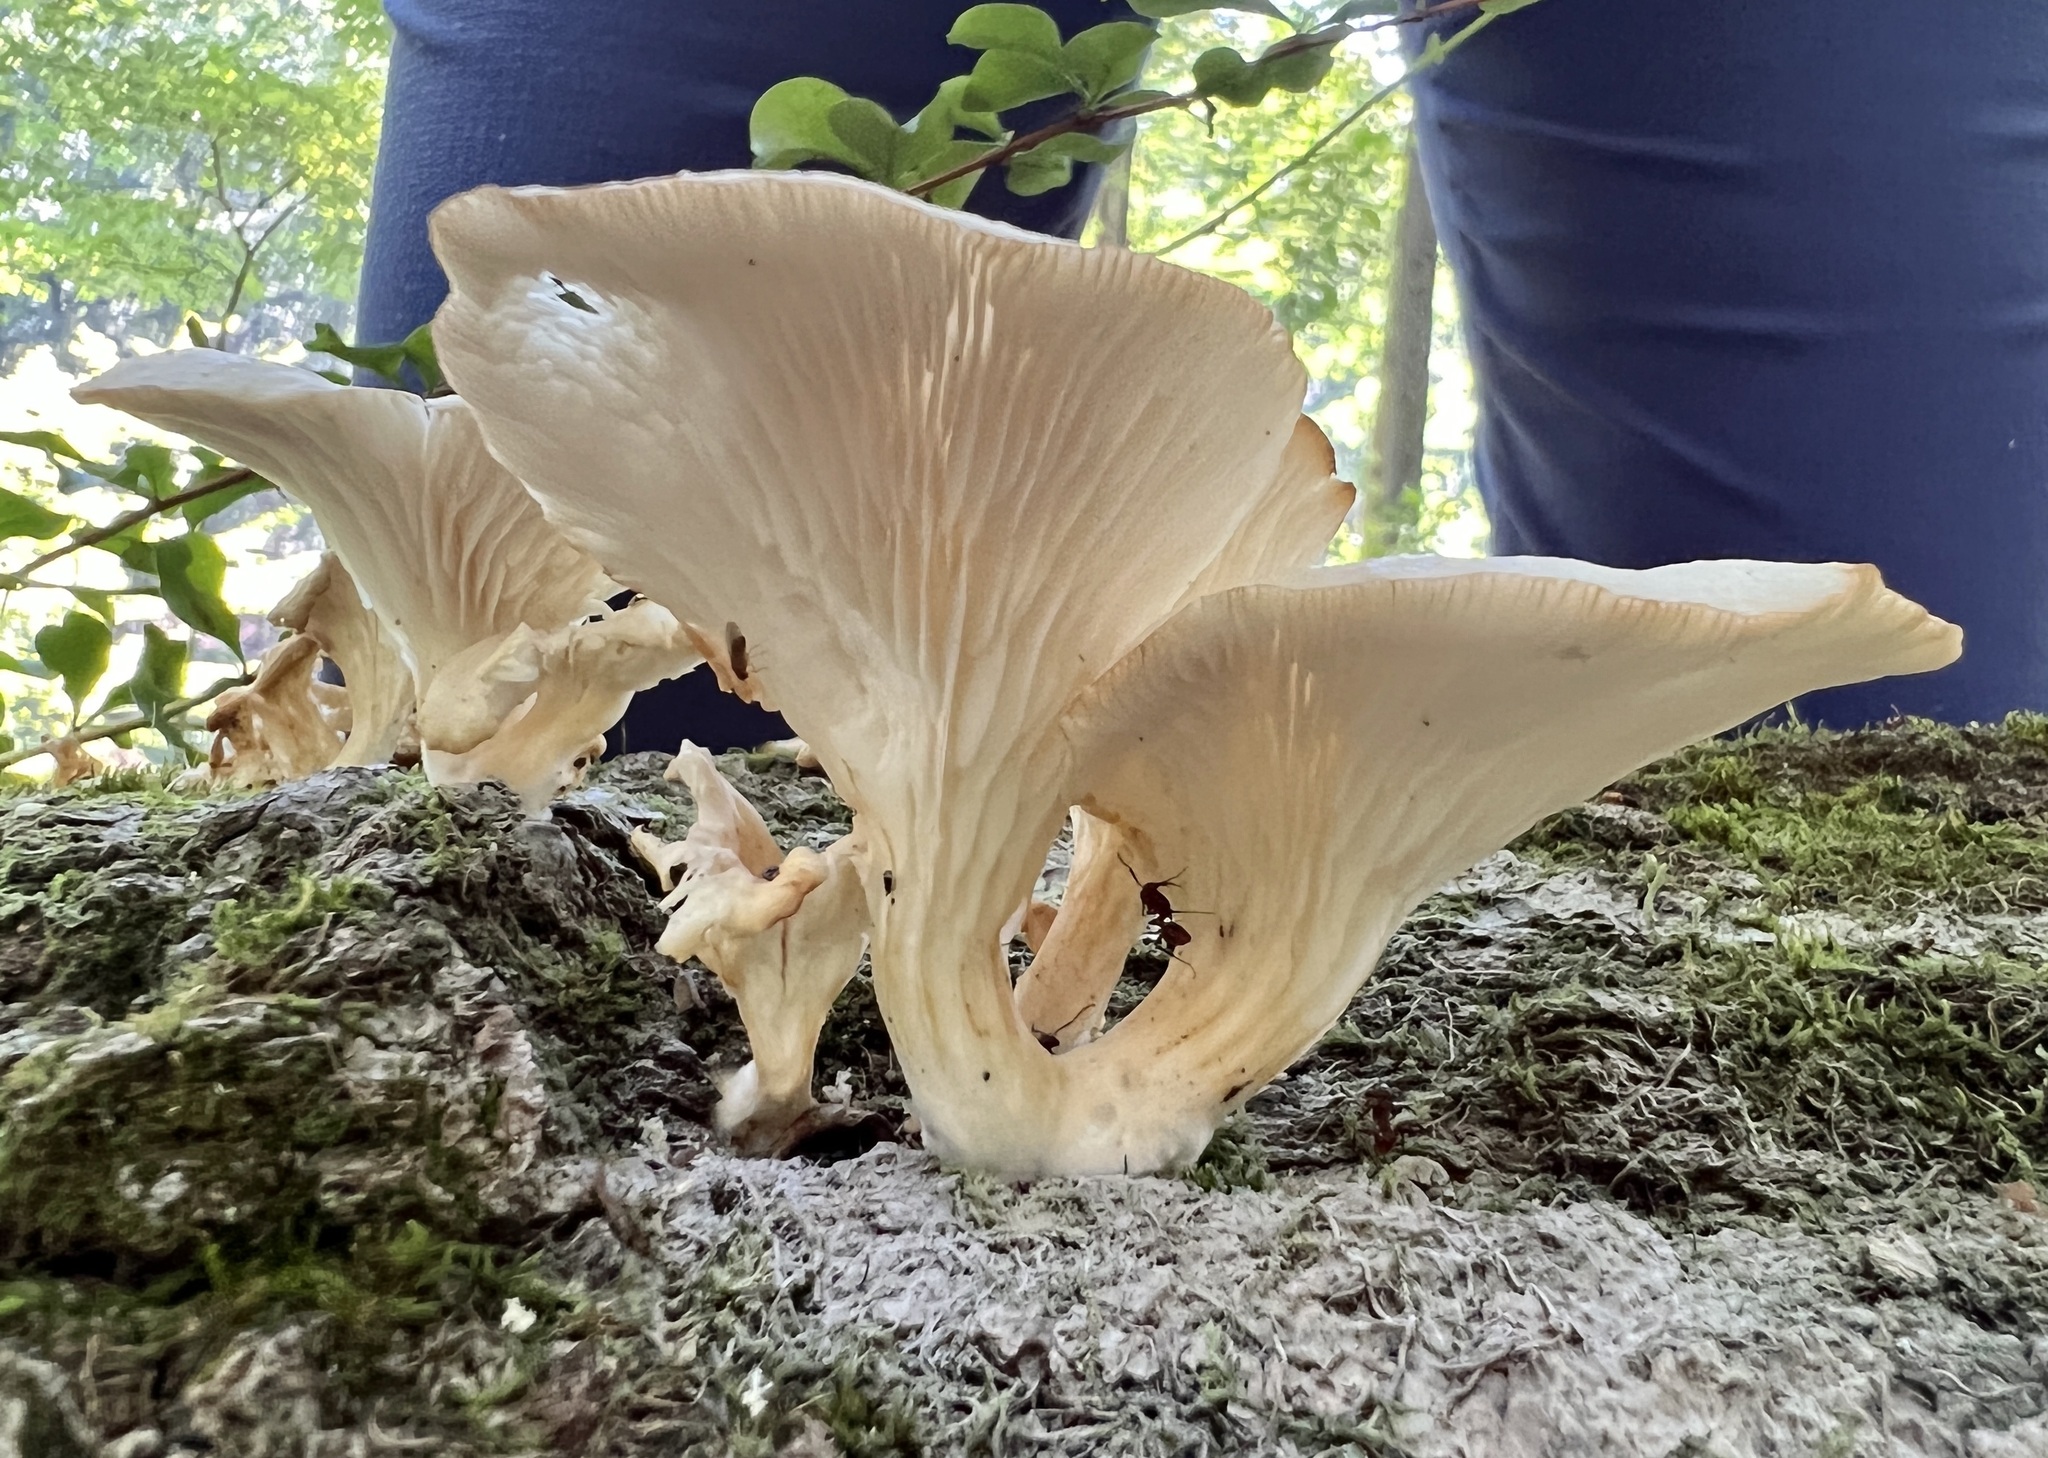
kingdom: Fungi
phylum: Basidiomycota
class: Agaricomycetes
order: Agaricales
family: Pleurotaceae
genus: Pleurotus
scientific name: Pleurotus pulmonarius
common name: Pale oyster
